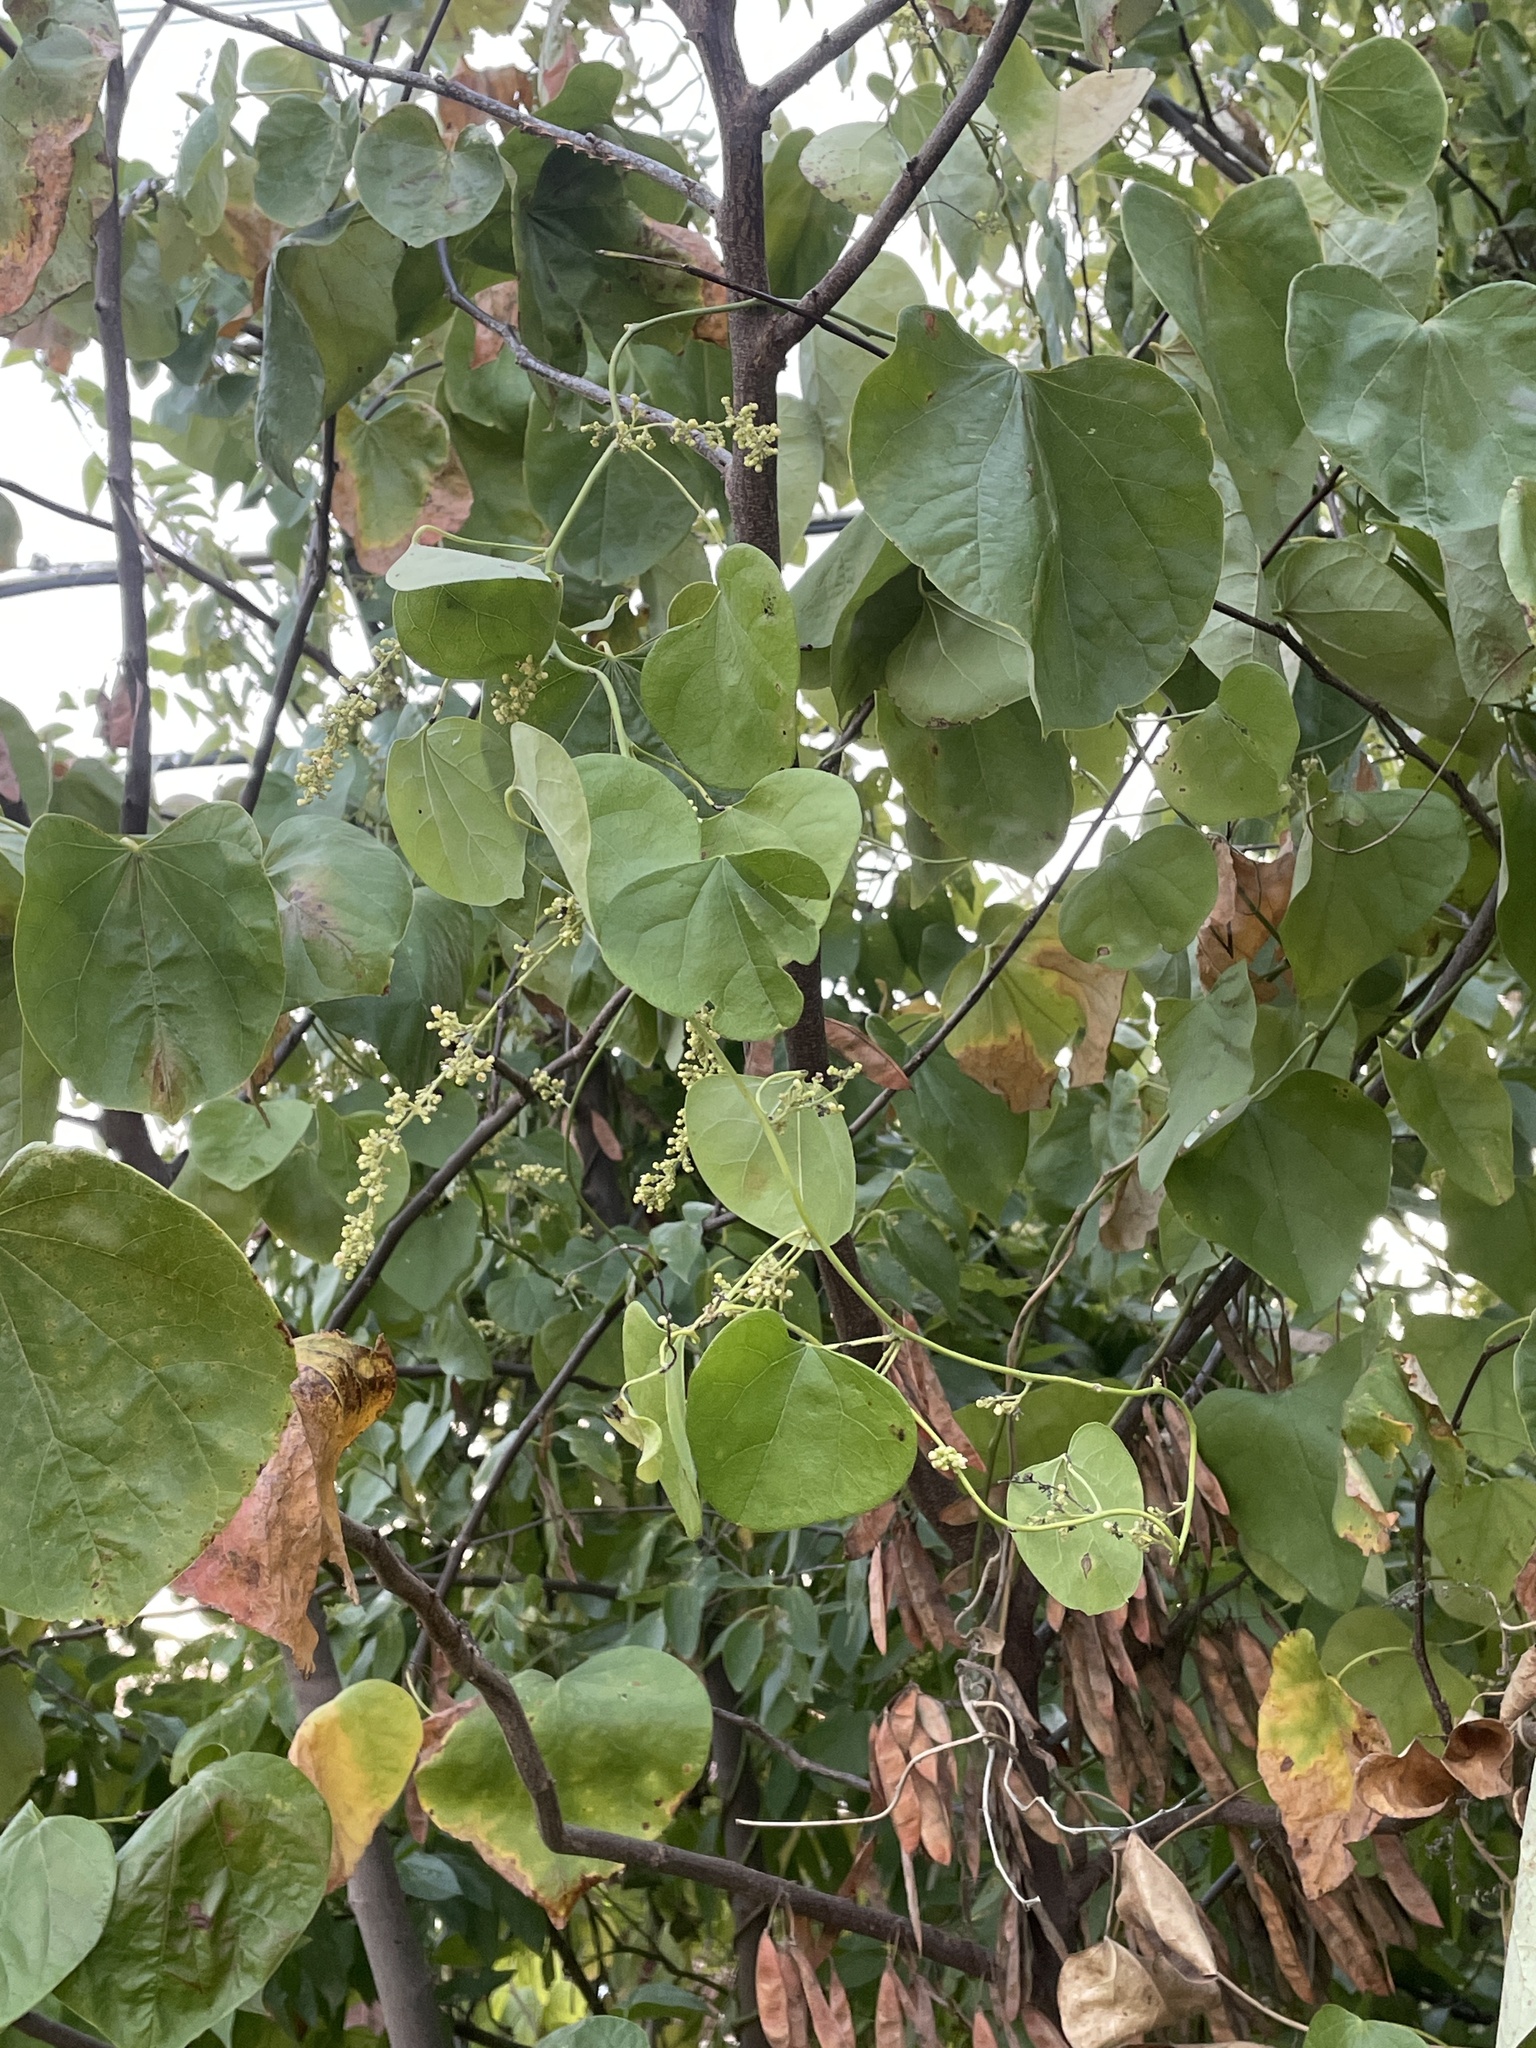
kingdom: Plantae
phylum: Tracheophyta
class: Magnoliopsida
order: Ranunculales
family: Menispermaceae
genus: Cocculus
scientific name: Cocculus carolinus
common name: Carolina moonseed
